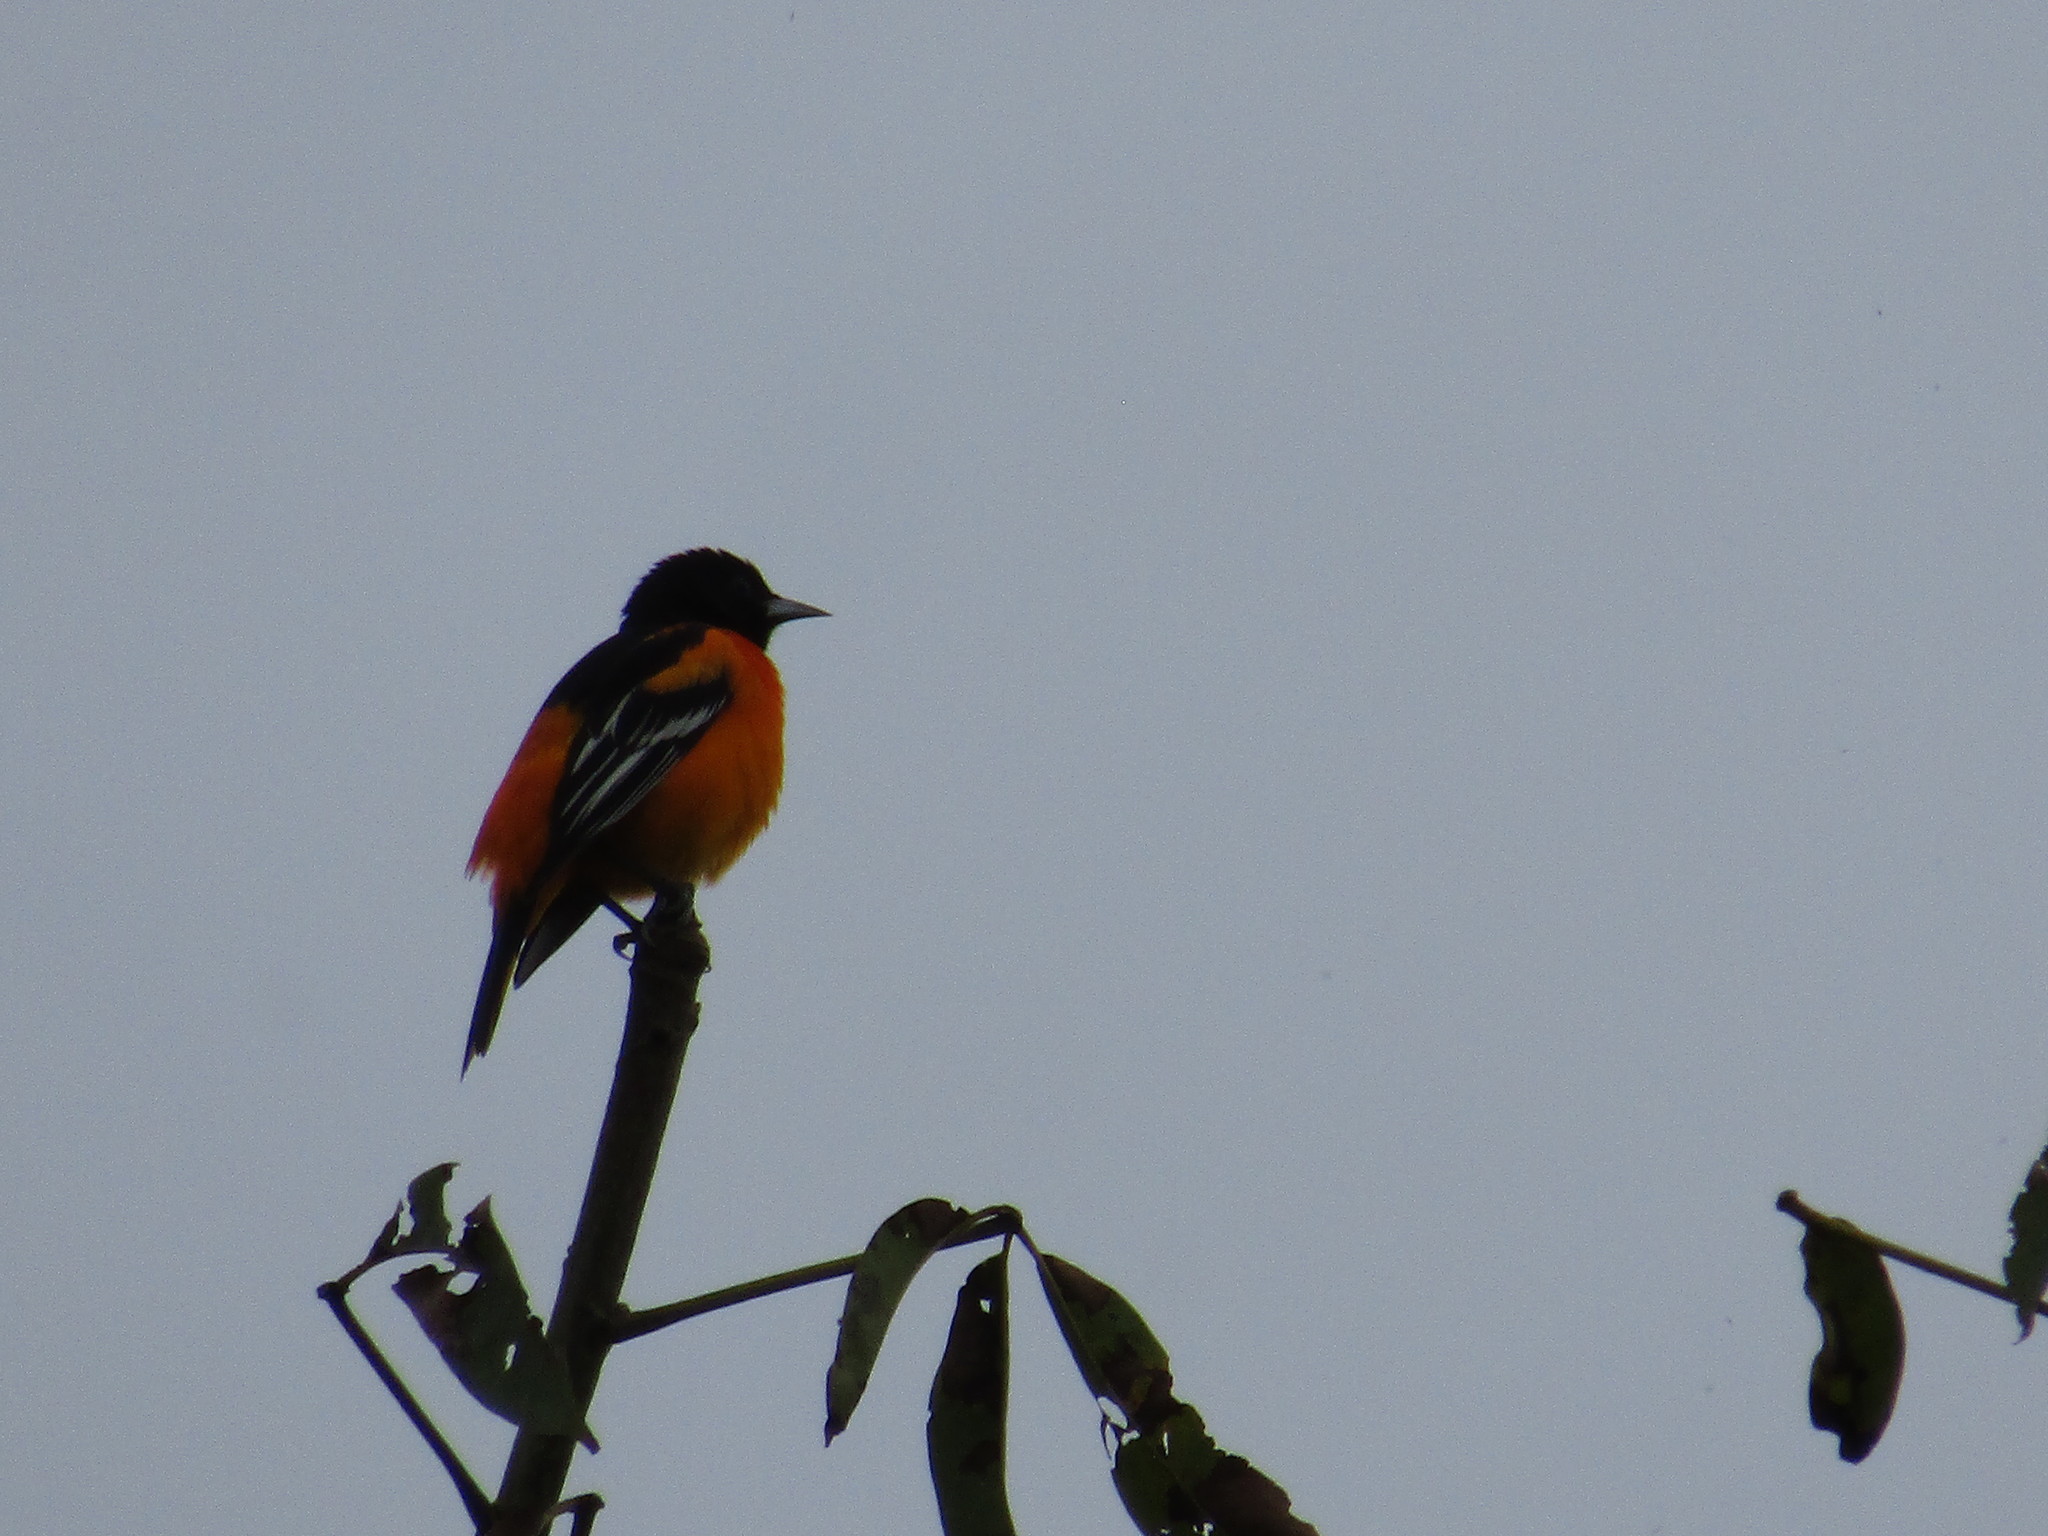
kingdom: Animalia
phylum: Chordata
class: Aves
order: Passeriformes
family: Icteridae
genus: Icterus
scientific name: Icterus galbula
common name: Baltimore oriole
